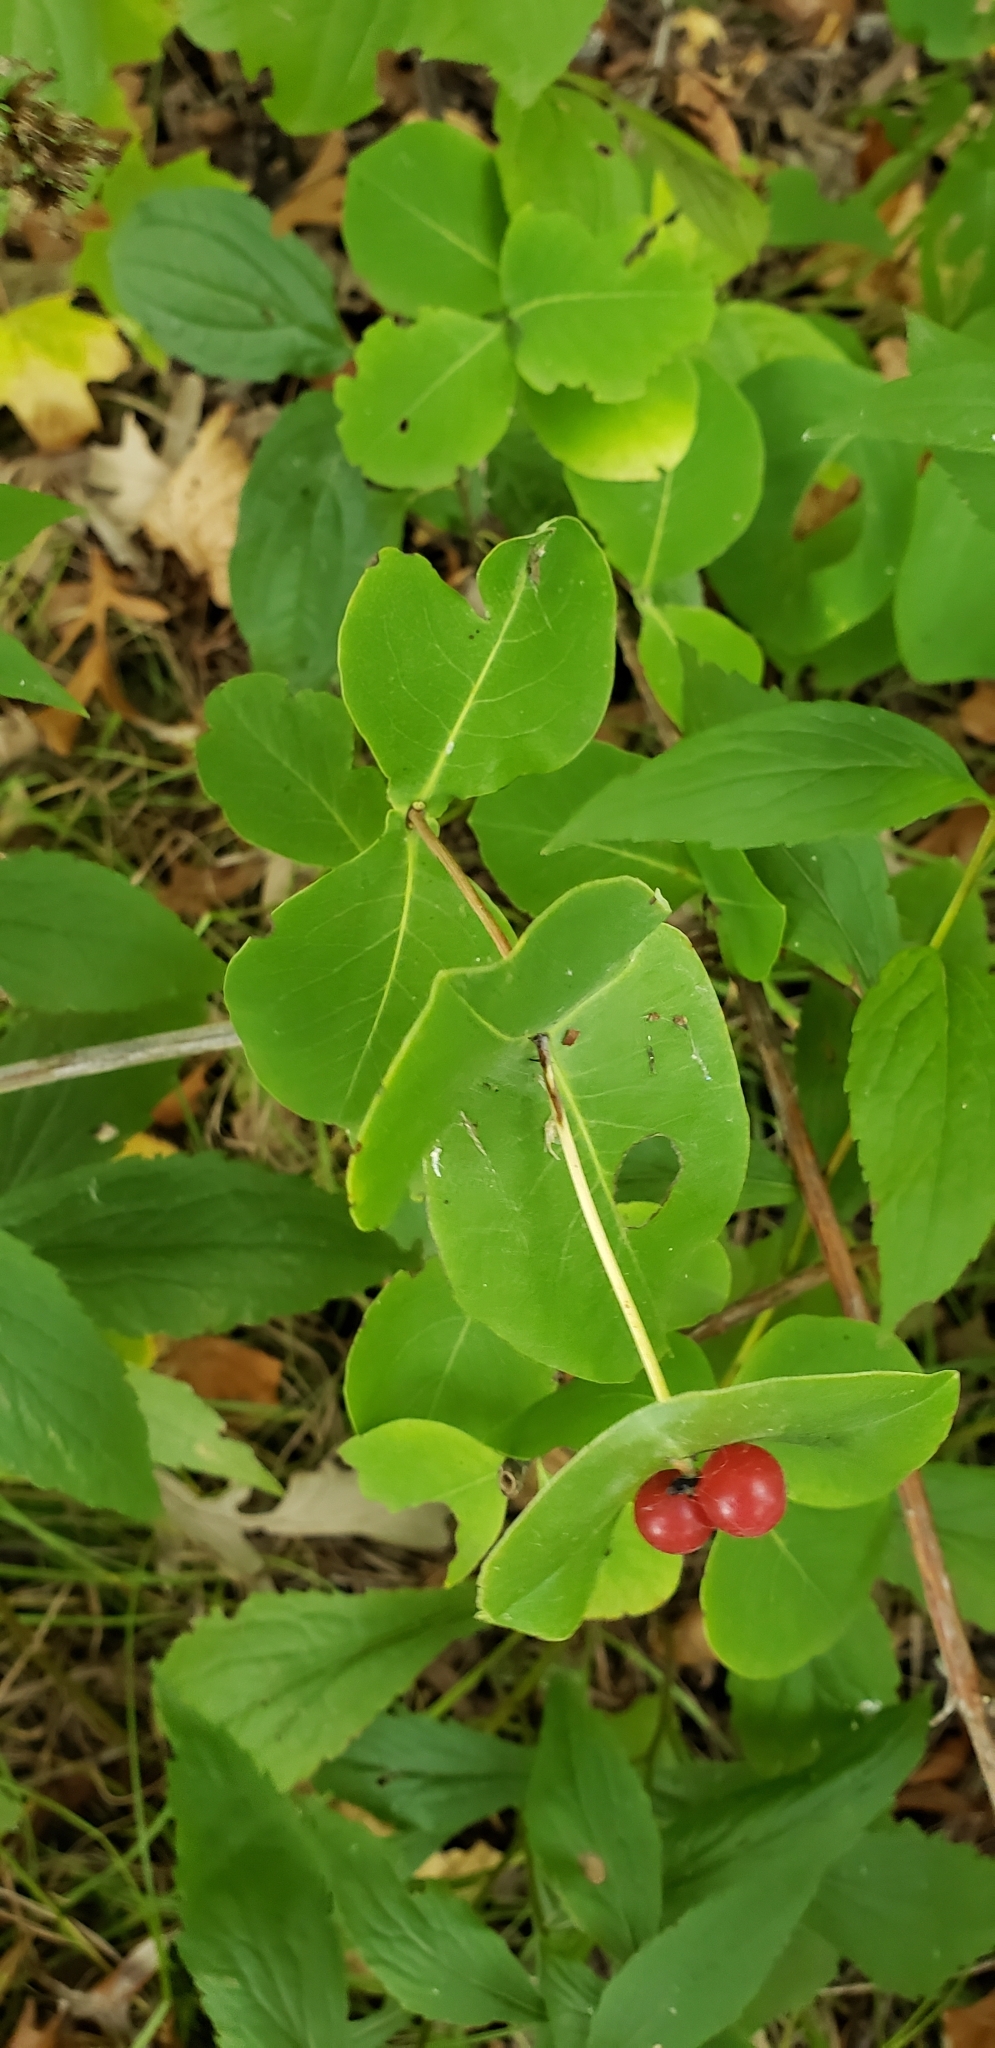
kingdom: Plantae
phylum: Tracheophyta
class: Magnoliopsida
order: Dipsacales
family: Caprifoliaceae
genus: Lonicera
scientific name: Lonicera dioica
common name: Limber honeysuckle
